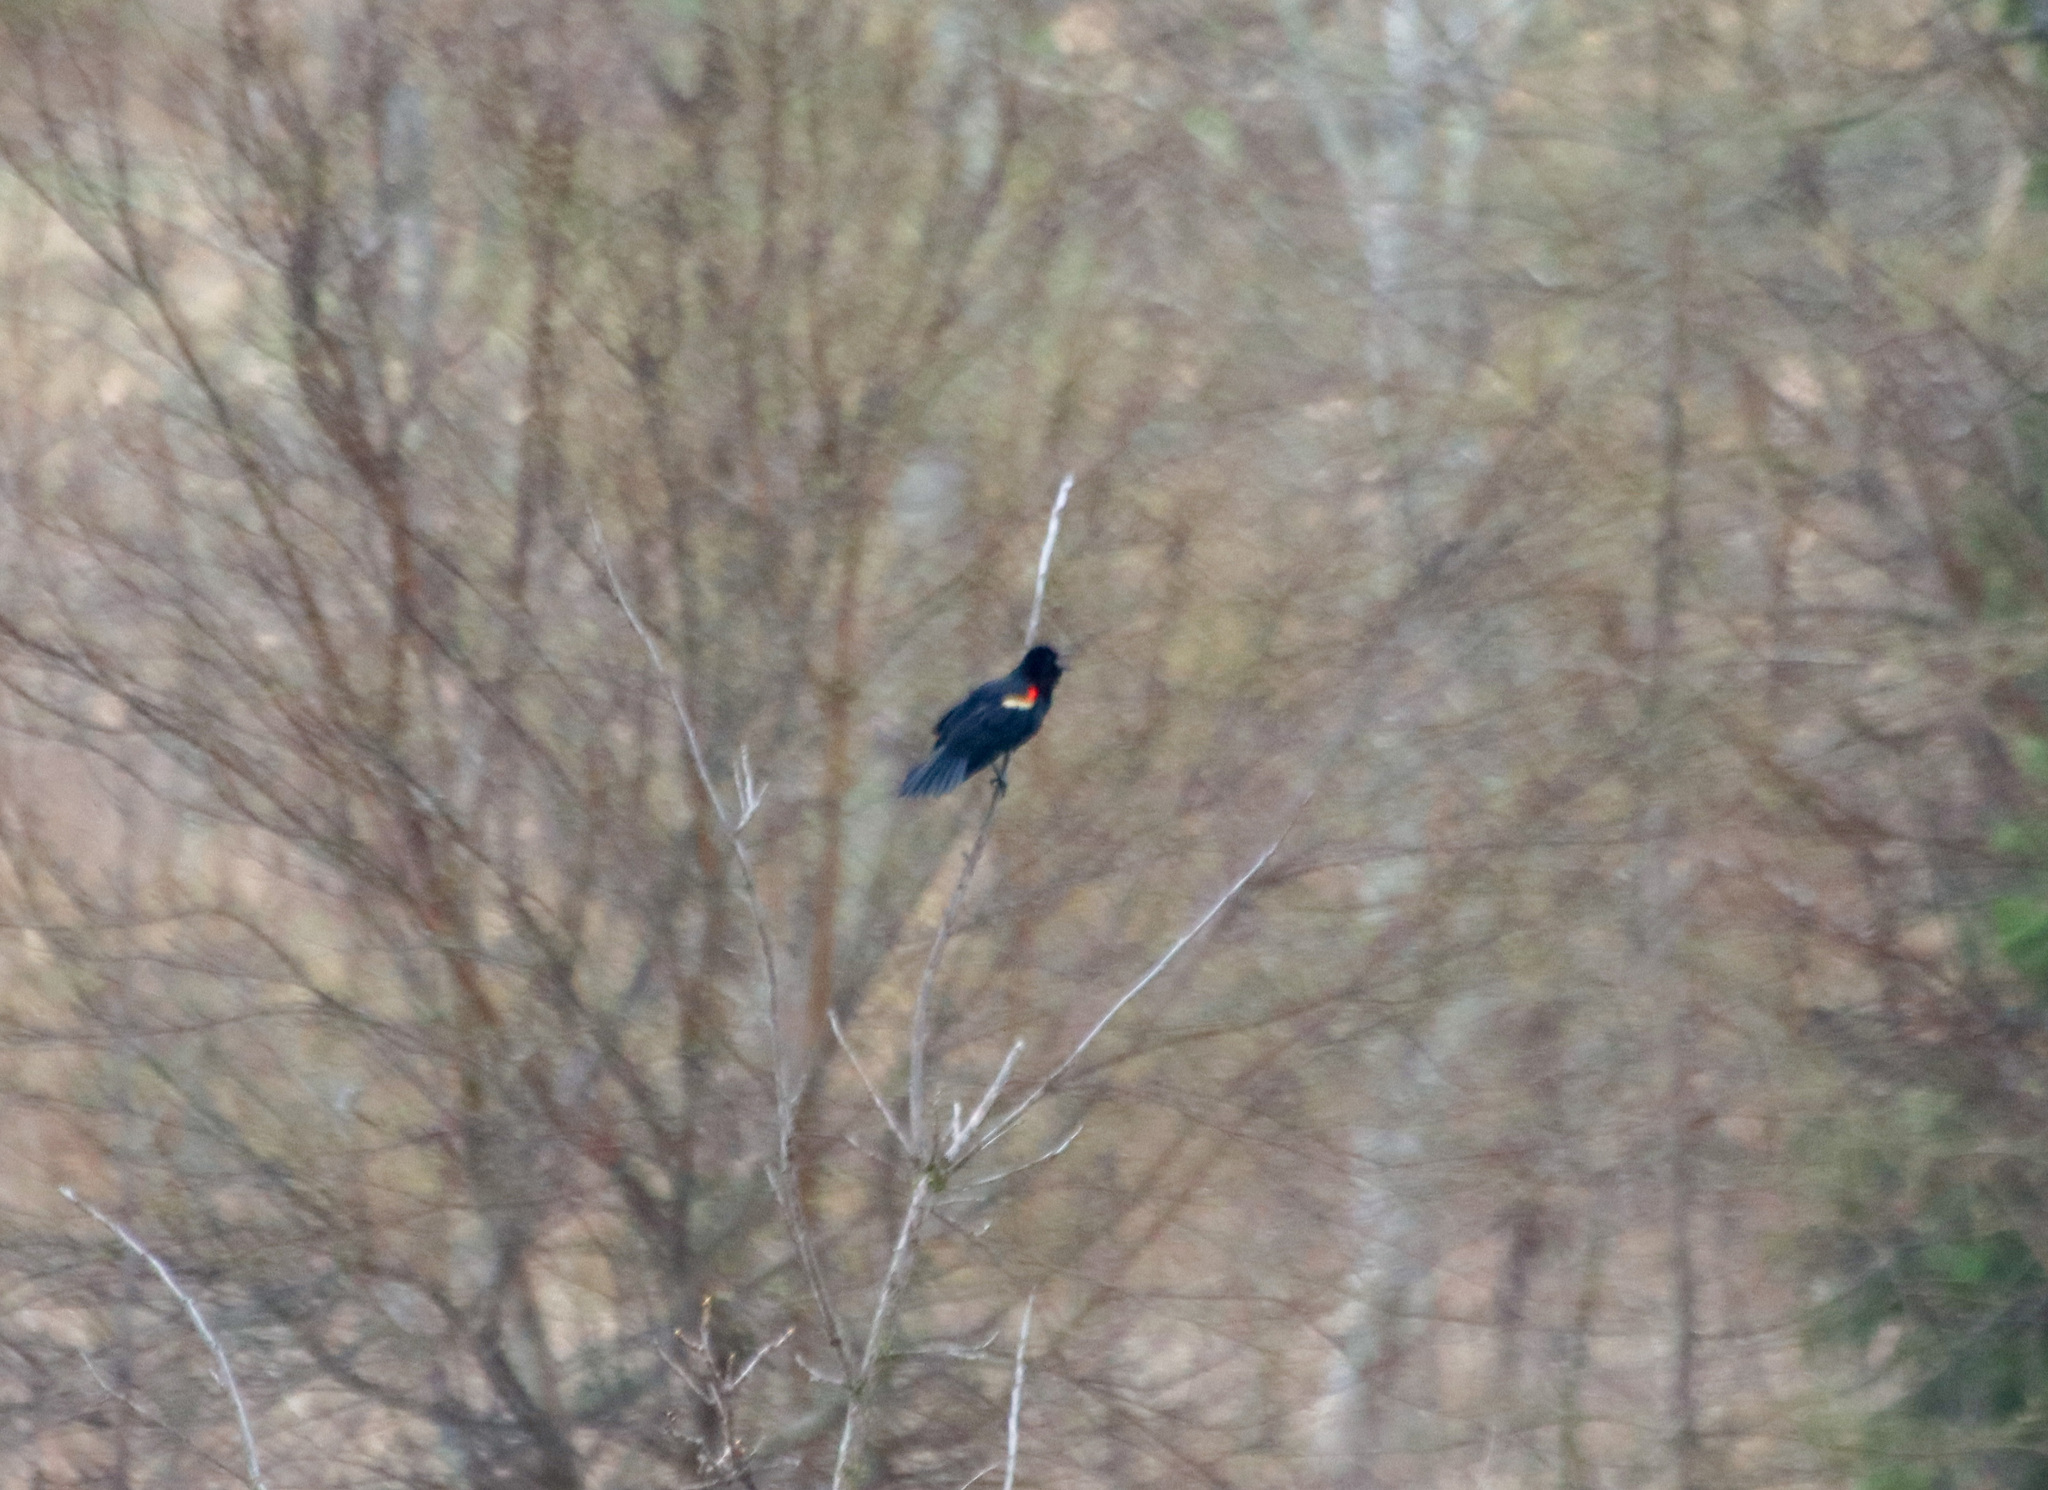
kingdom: Animalia
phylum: Chordata
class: Aves
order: Passeriformes
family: Icteridae
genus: Agelaius
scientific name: Agelaius phoeniceus
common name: Red-winged blackbird
